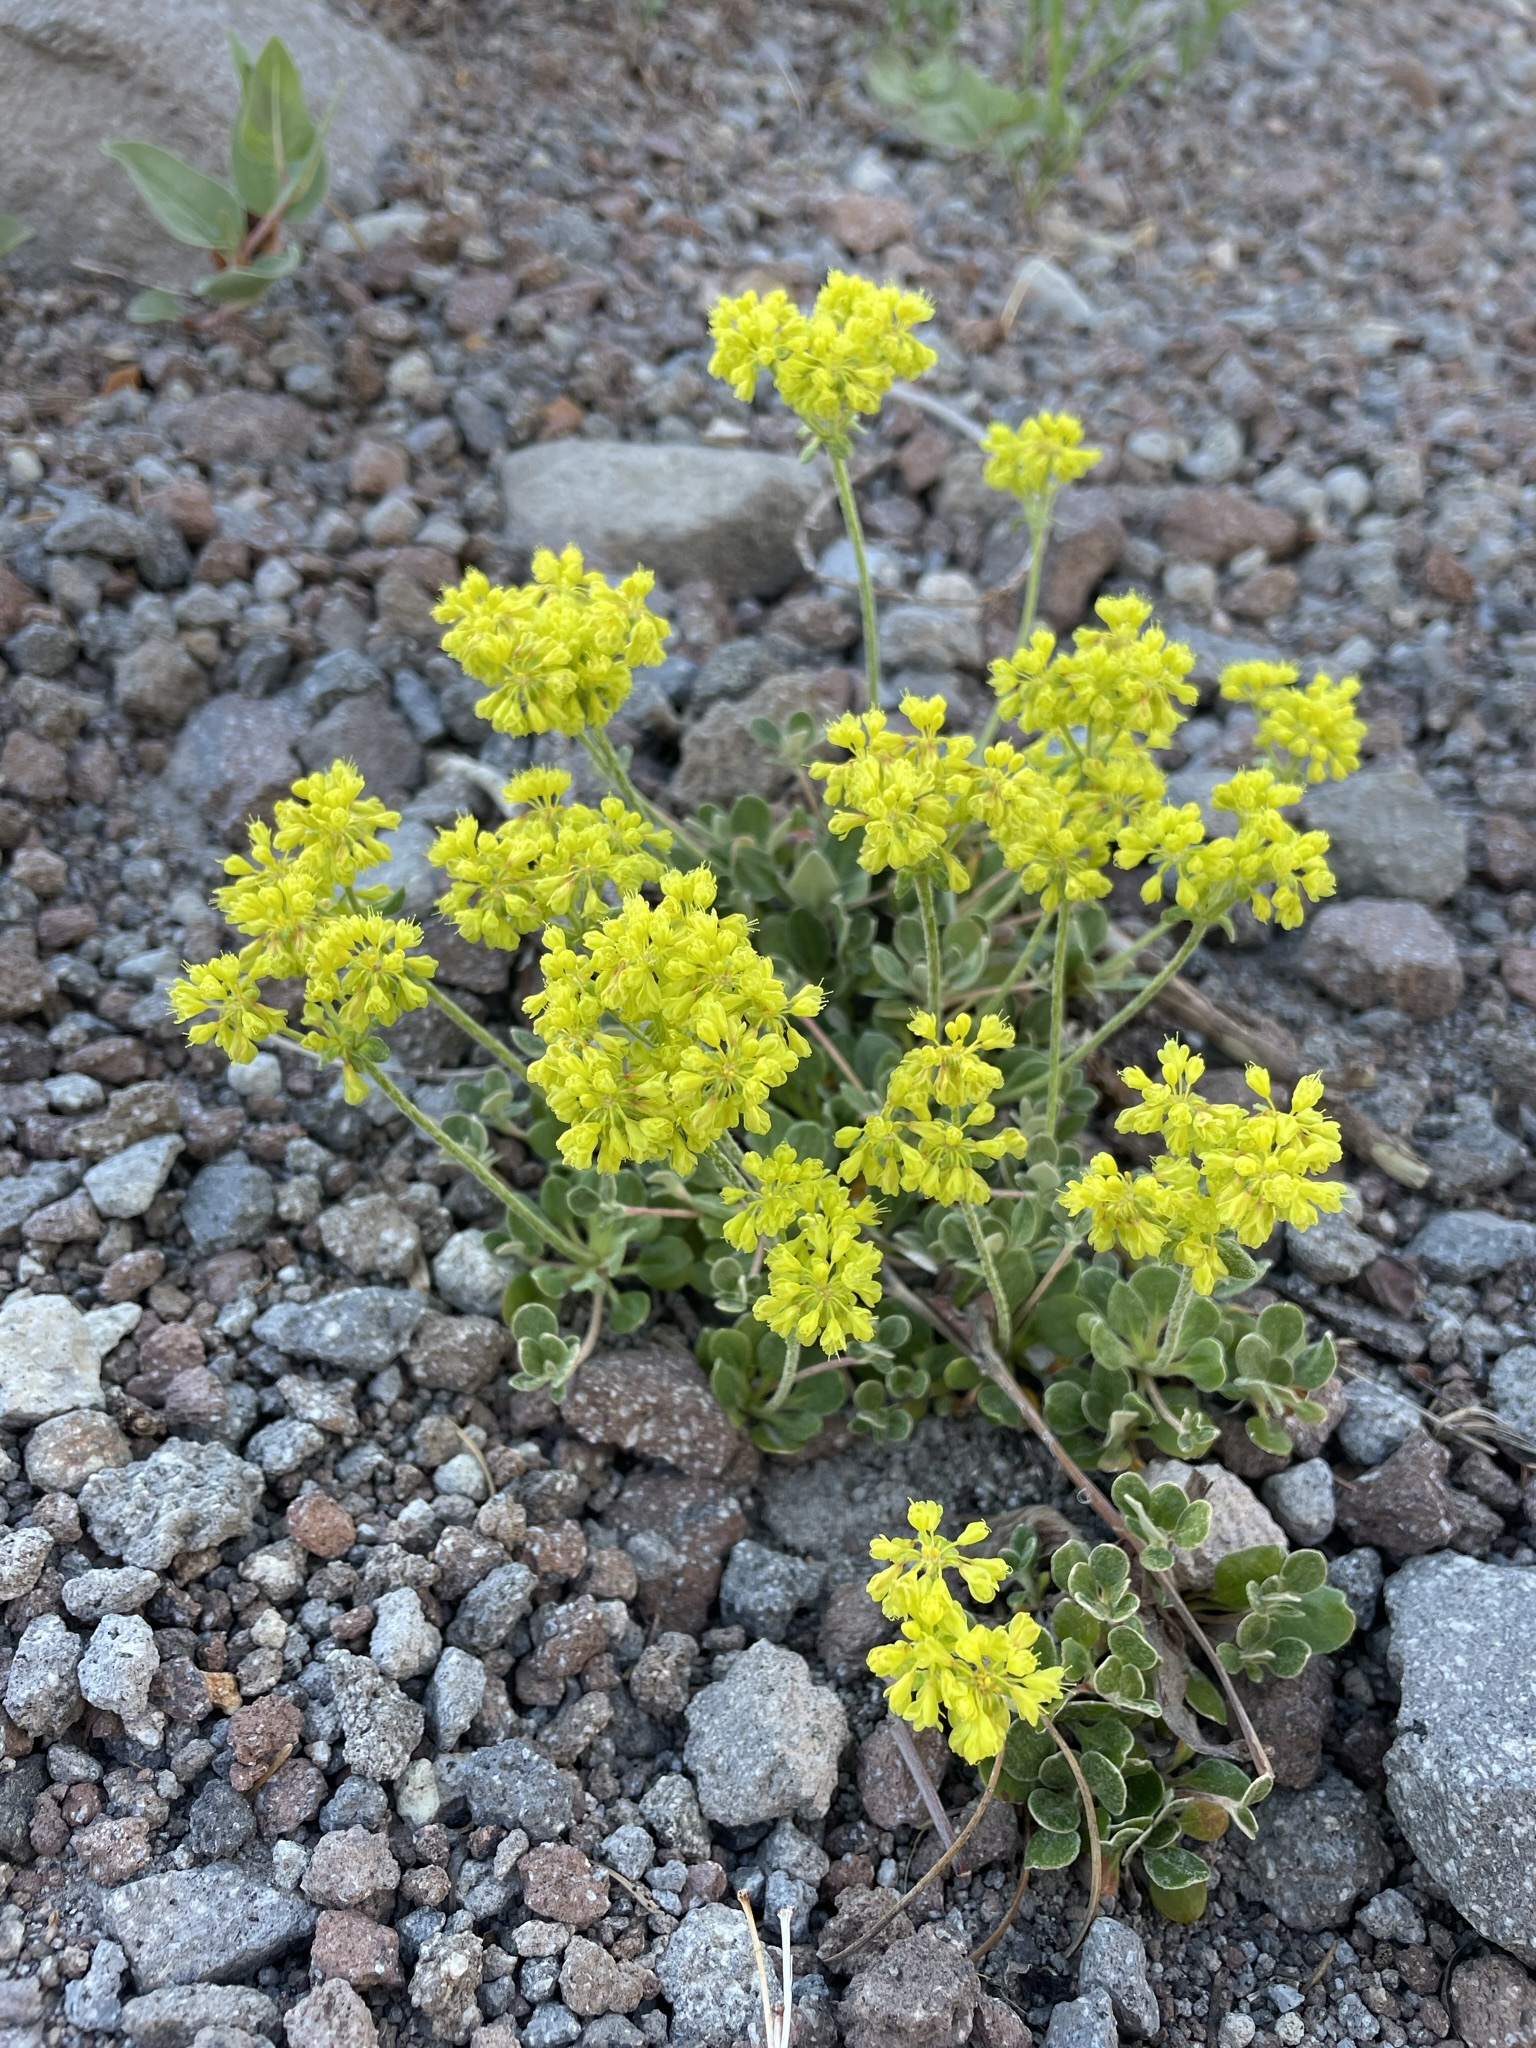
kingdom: Plantae
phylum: Tracheophyta
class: Magnoliopsida
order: Caryophyllales
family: Polygonaceae
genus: Eriogonum
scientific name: Eriogonum umbellatum
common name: Sulfur-buckwheat
